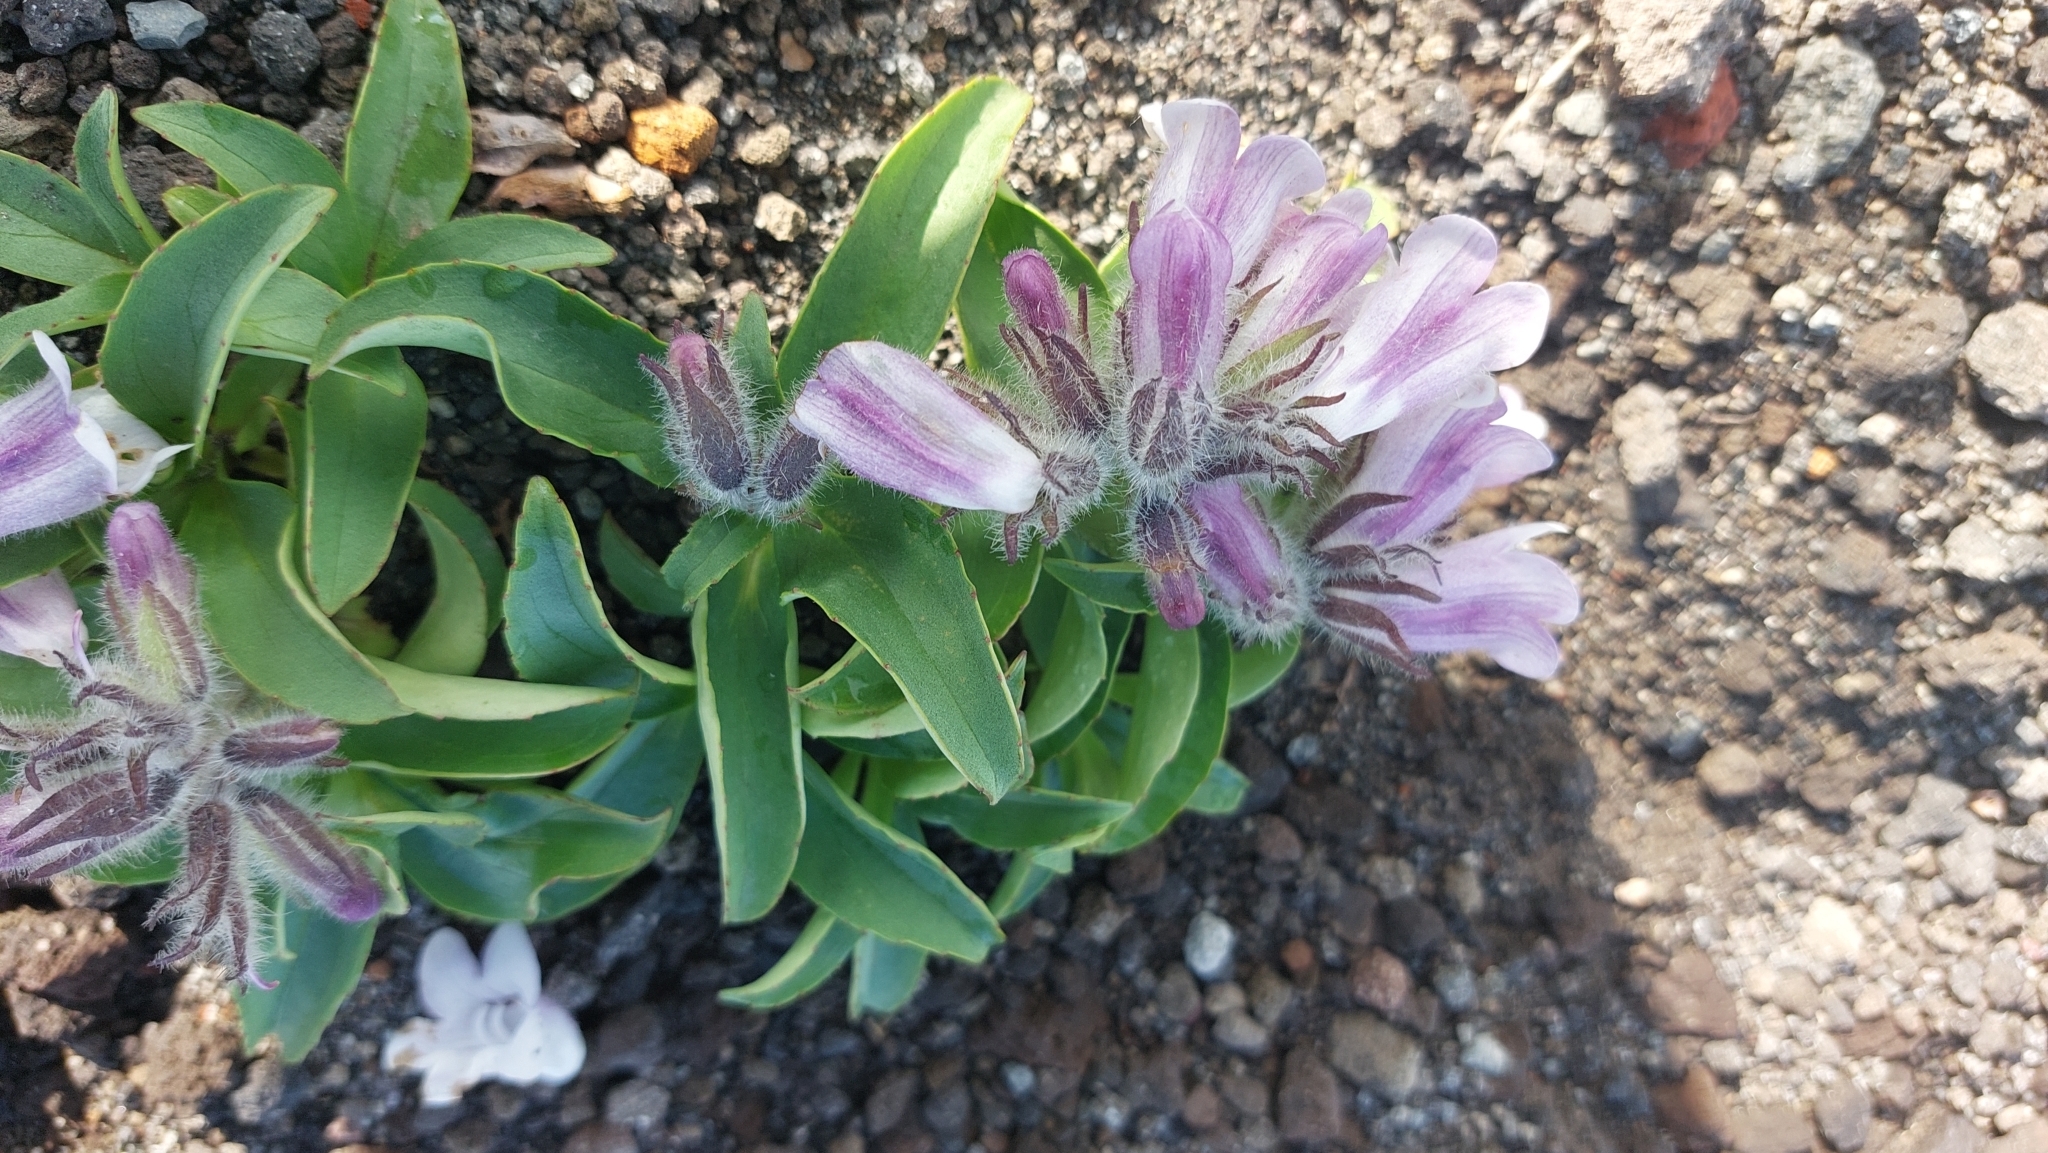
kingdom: Plantae
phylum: Tracheophyta
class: Magnoliopsida
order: Lamiales
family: Plantaginaceae
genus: Pennellianthus
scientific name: Pennellianthus frutescens
